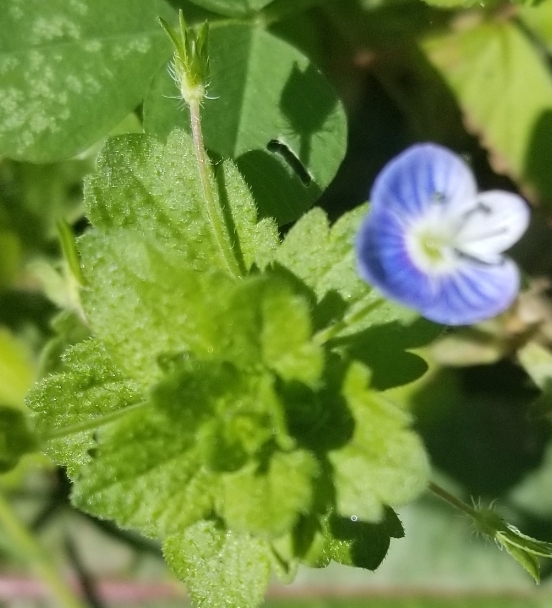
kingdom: Plantae
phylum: Tracheophyta
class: Magnoliopsida
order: Lamiales
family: Plantaginaceae
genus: Veronica
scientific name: Veronica persica
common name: Common field-speedwell
